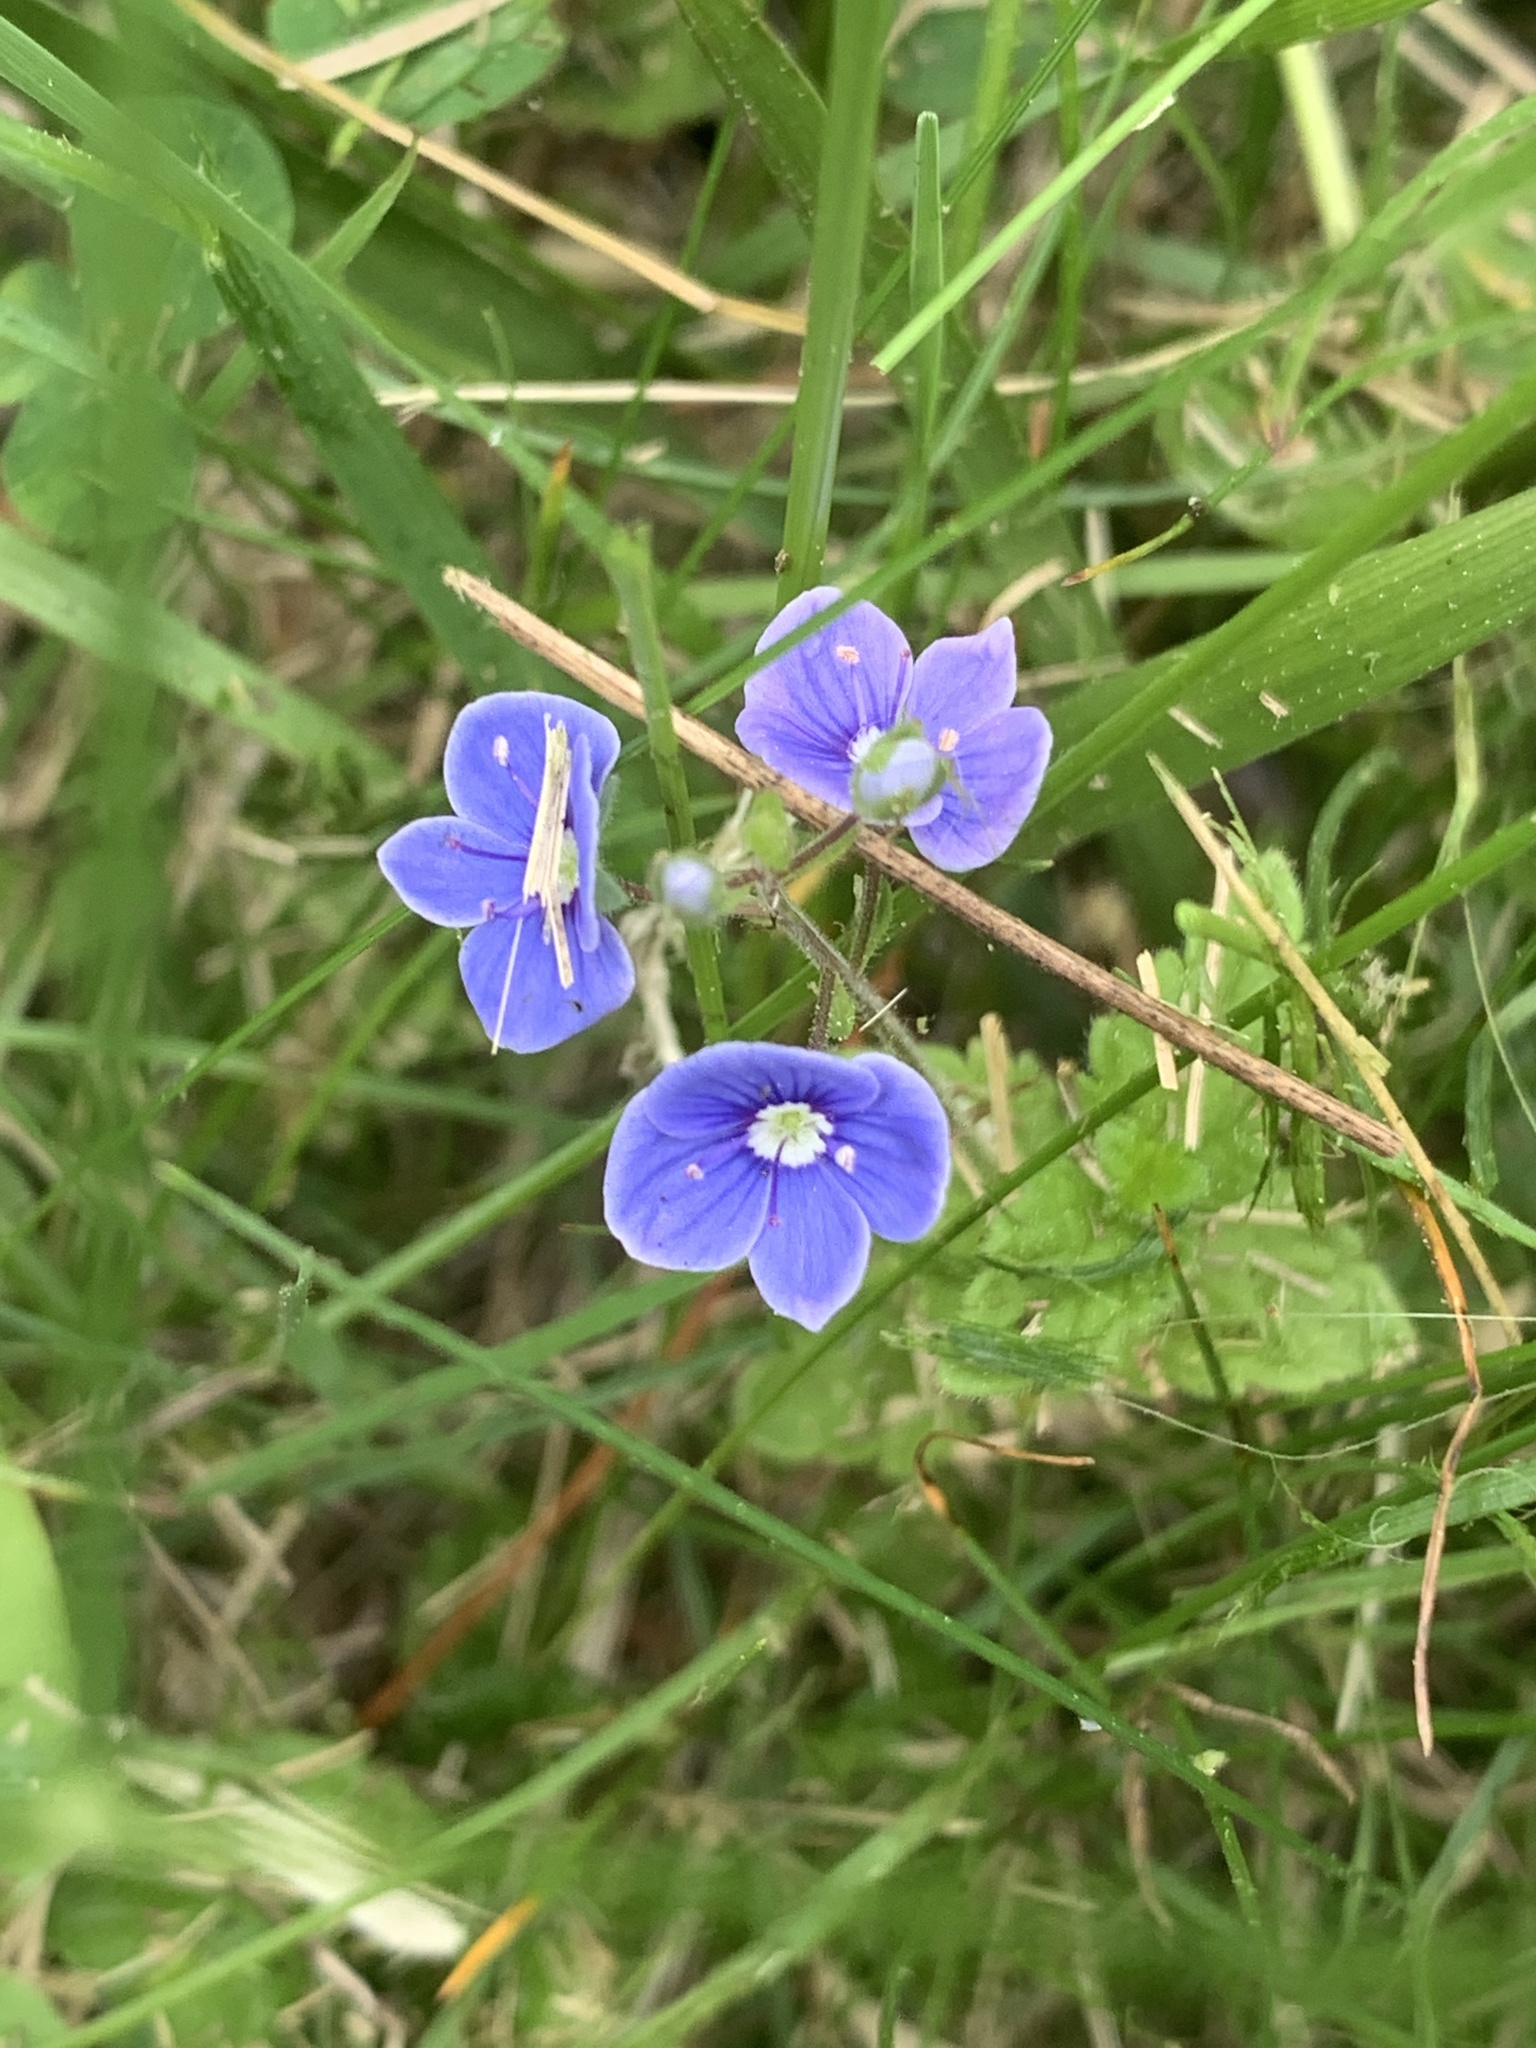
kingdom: Plantae
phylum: Tracheophyta
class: Magnoliopsida
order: Lamiales
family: Plantaginaceae
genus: Veronica
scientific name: Veronica chamaedrys
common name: Germander speedwell
